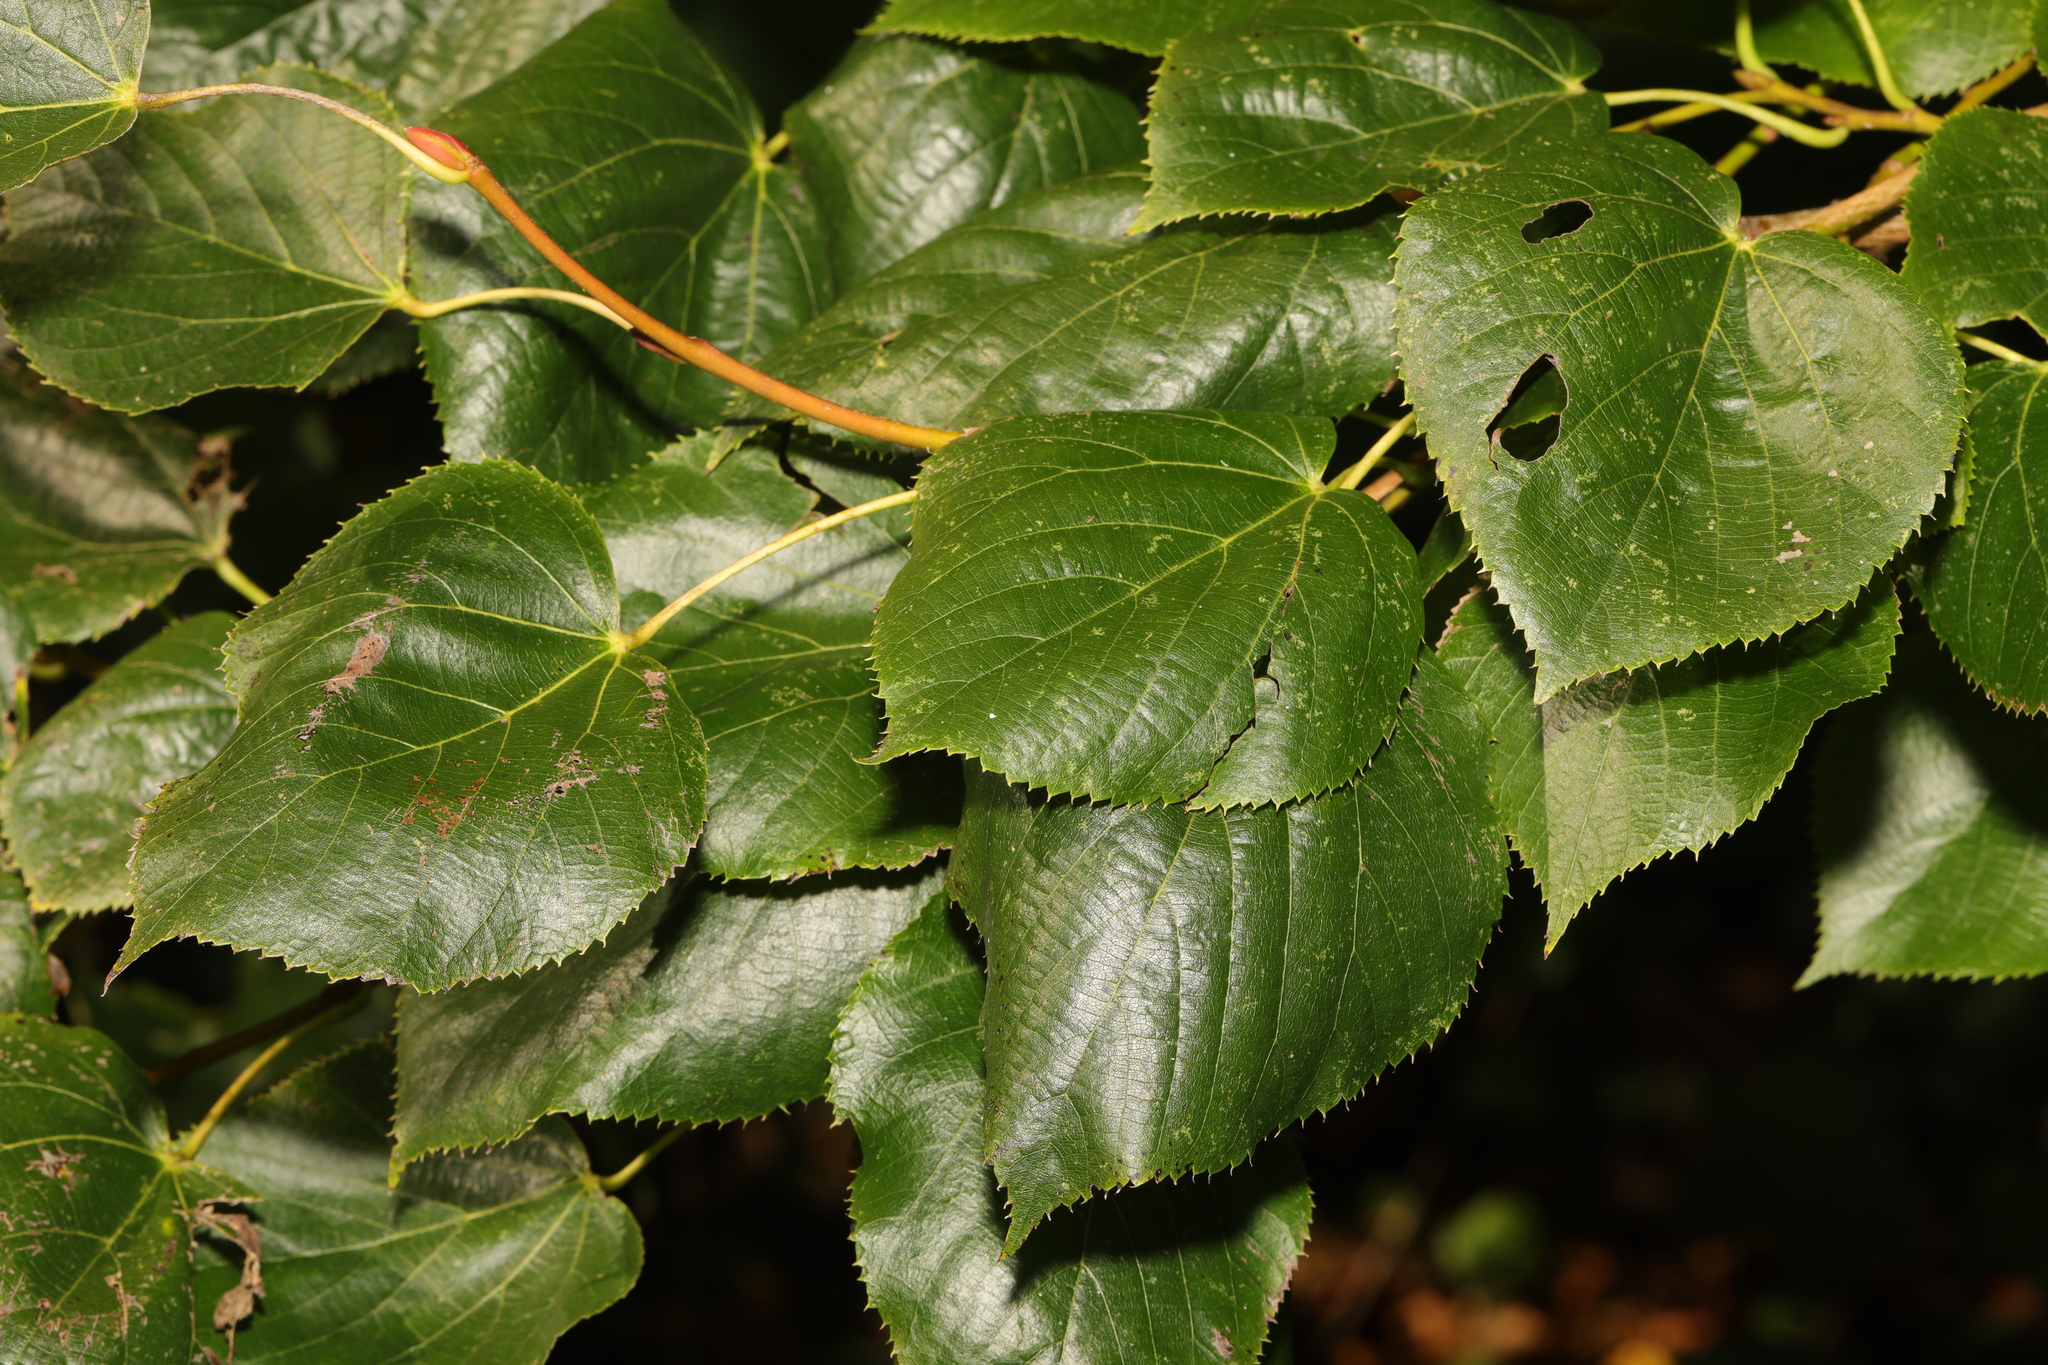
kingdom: Plantae
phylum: Tracheophyta
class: Magnoliopsida
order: Malvales
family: Malvaceae
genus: Tilia
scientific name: Tilia europaea
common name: European linden
